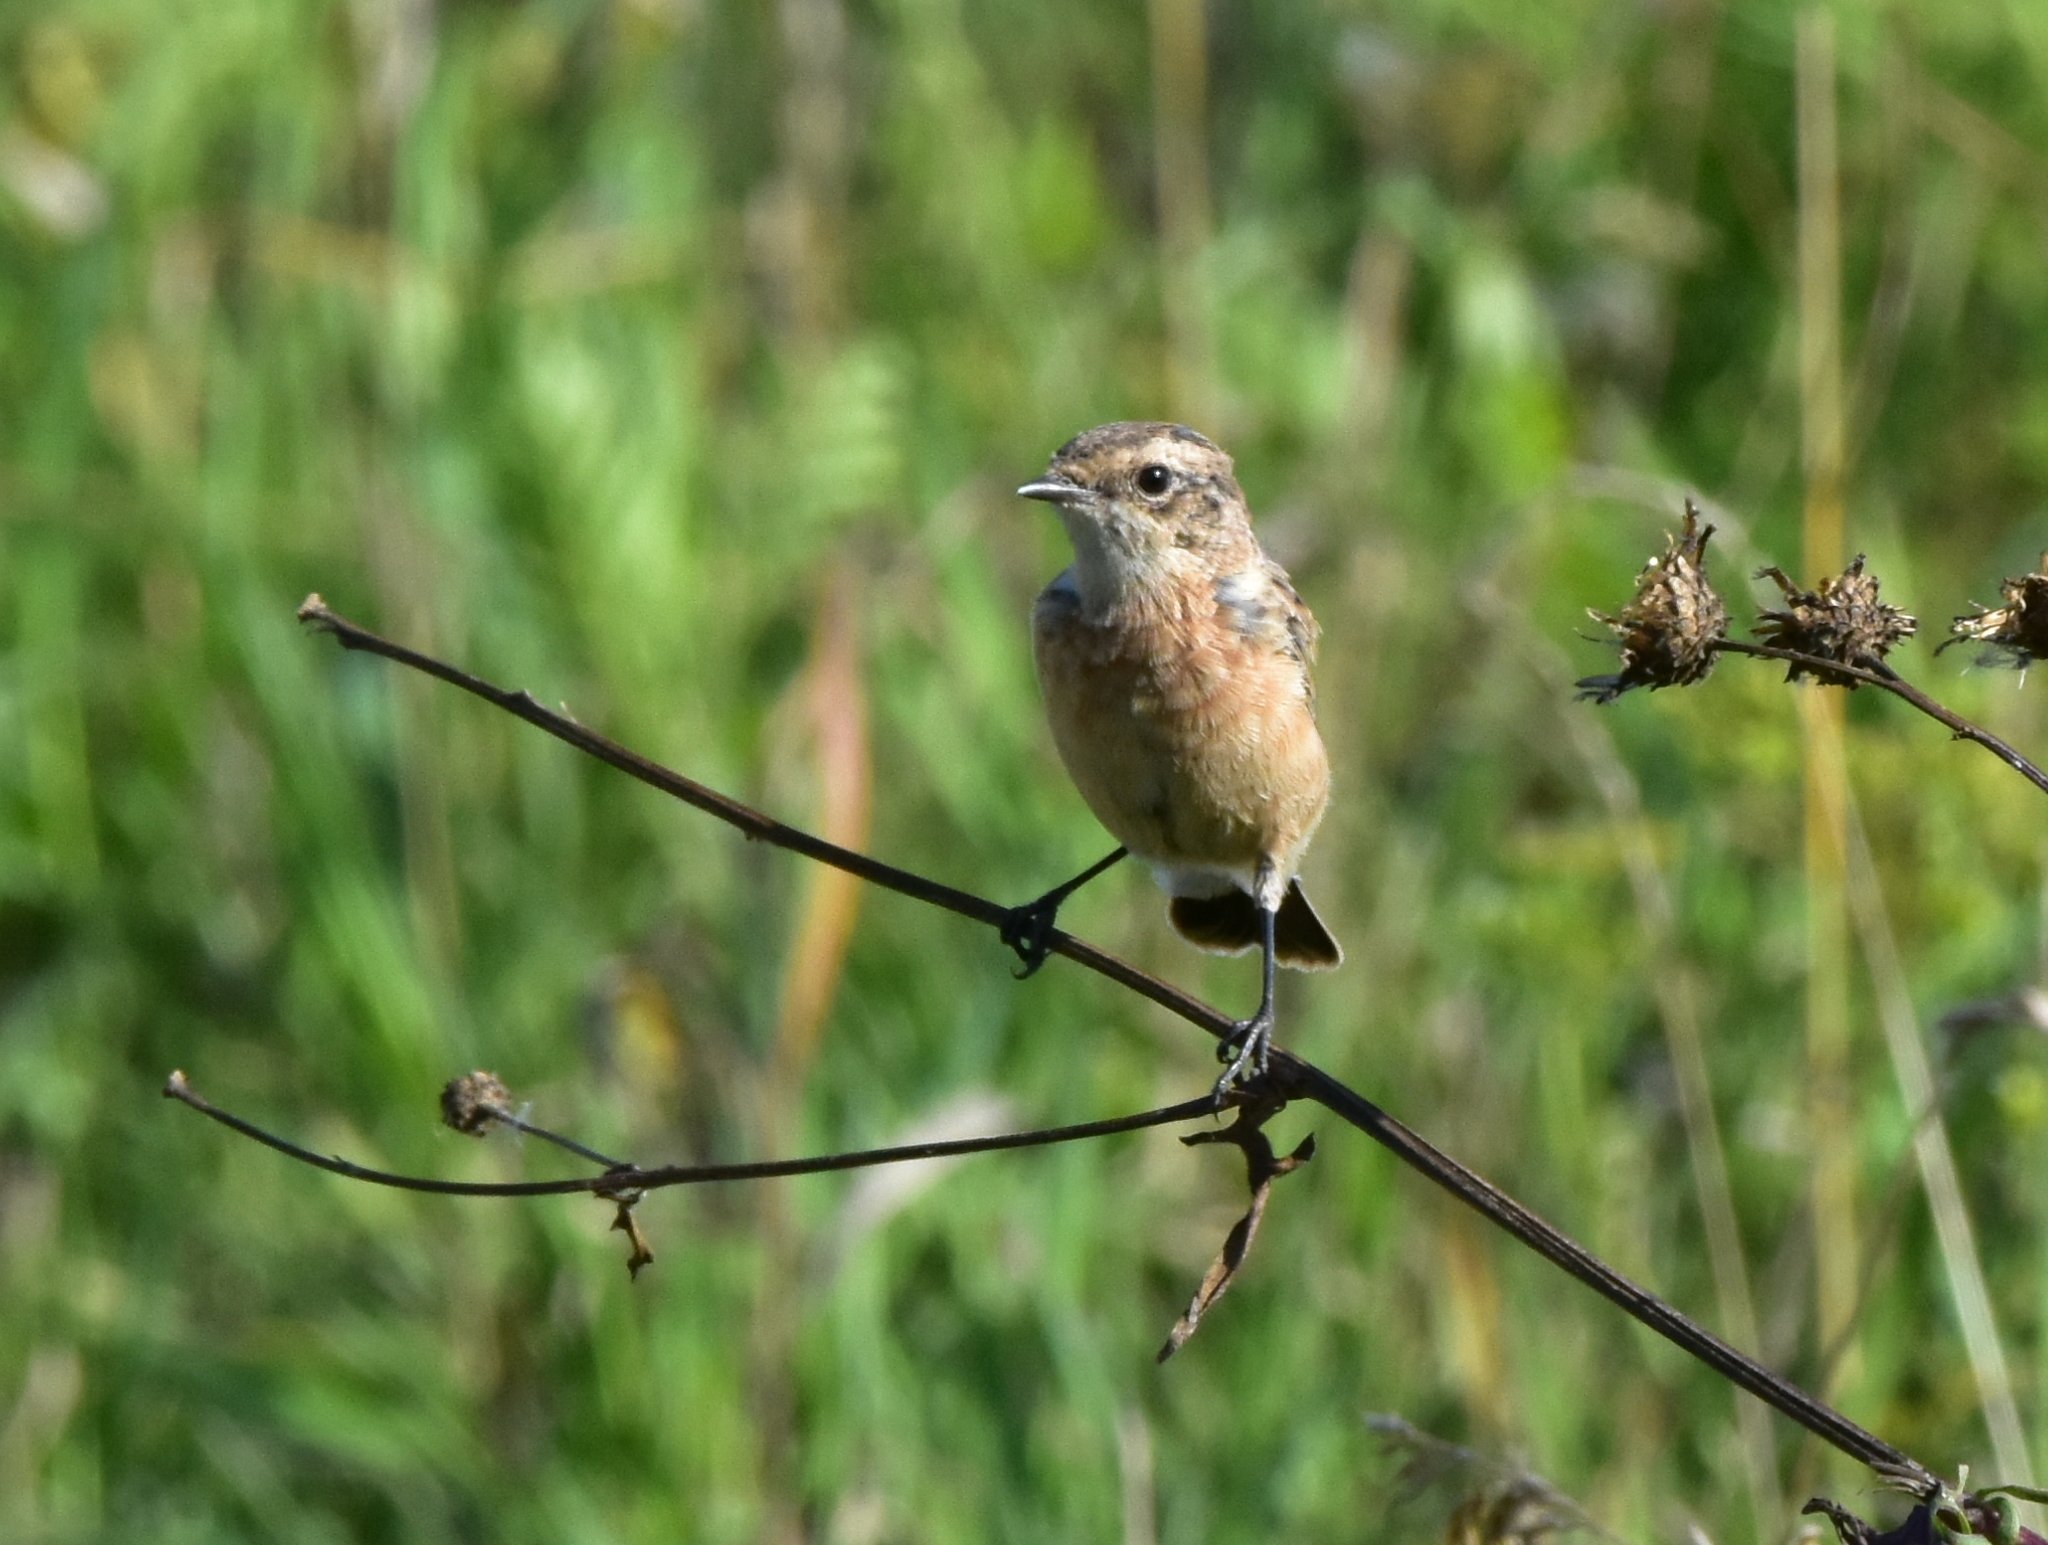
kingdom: Animalia
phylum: Chordata
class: Aves
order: Passeriformes
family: Muscicapidae
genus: Saxicola
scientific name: Saxicola rubetra
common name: Whinchat
